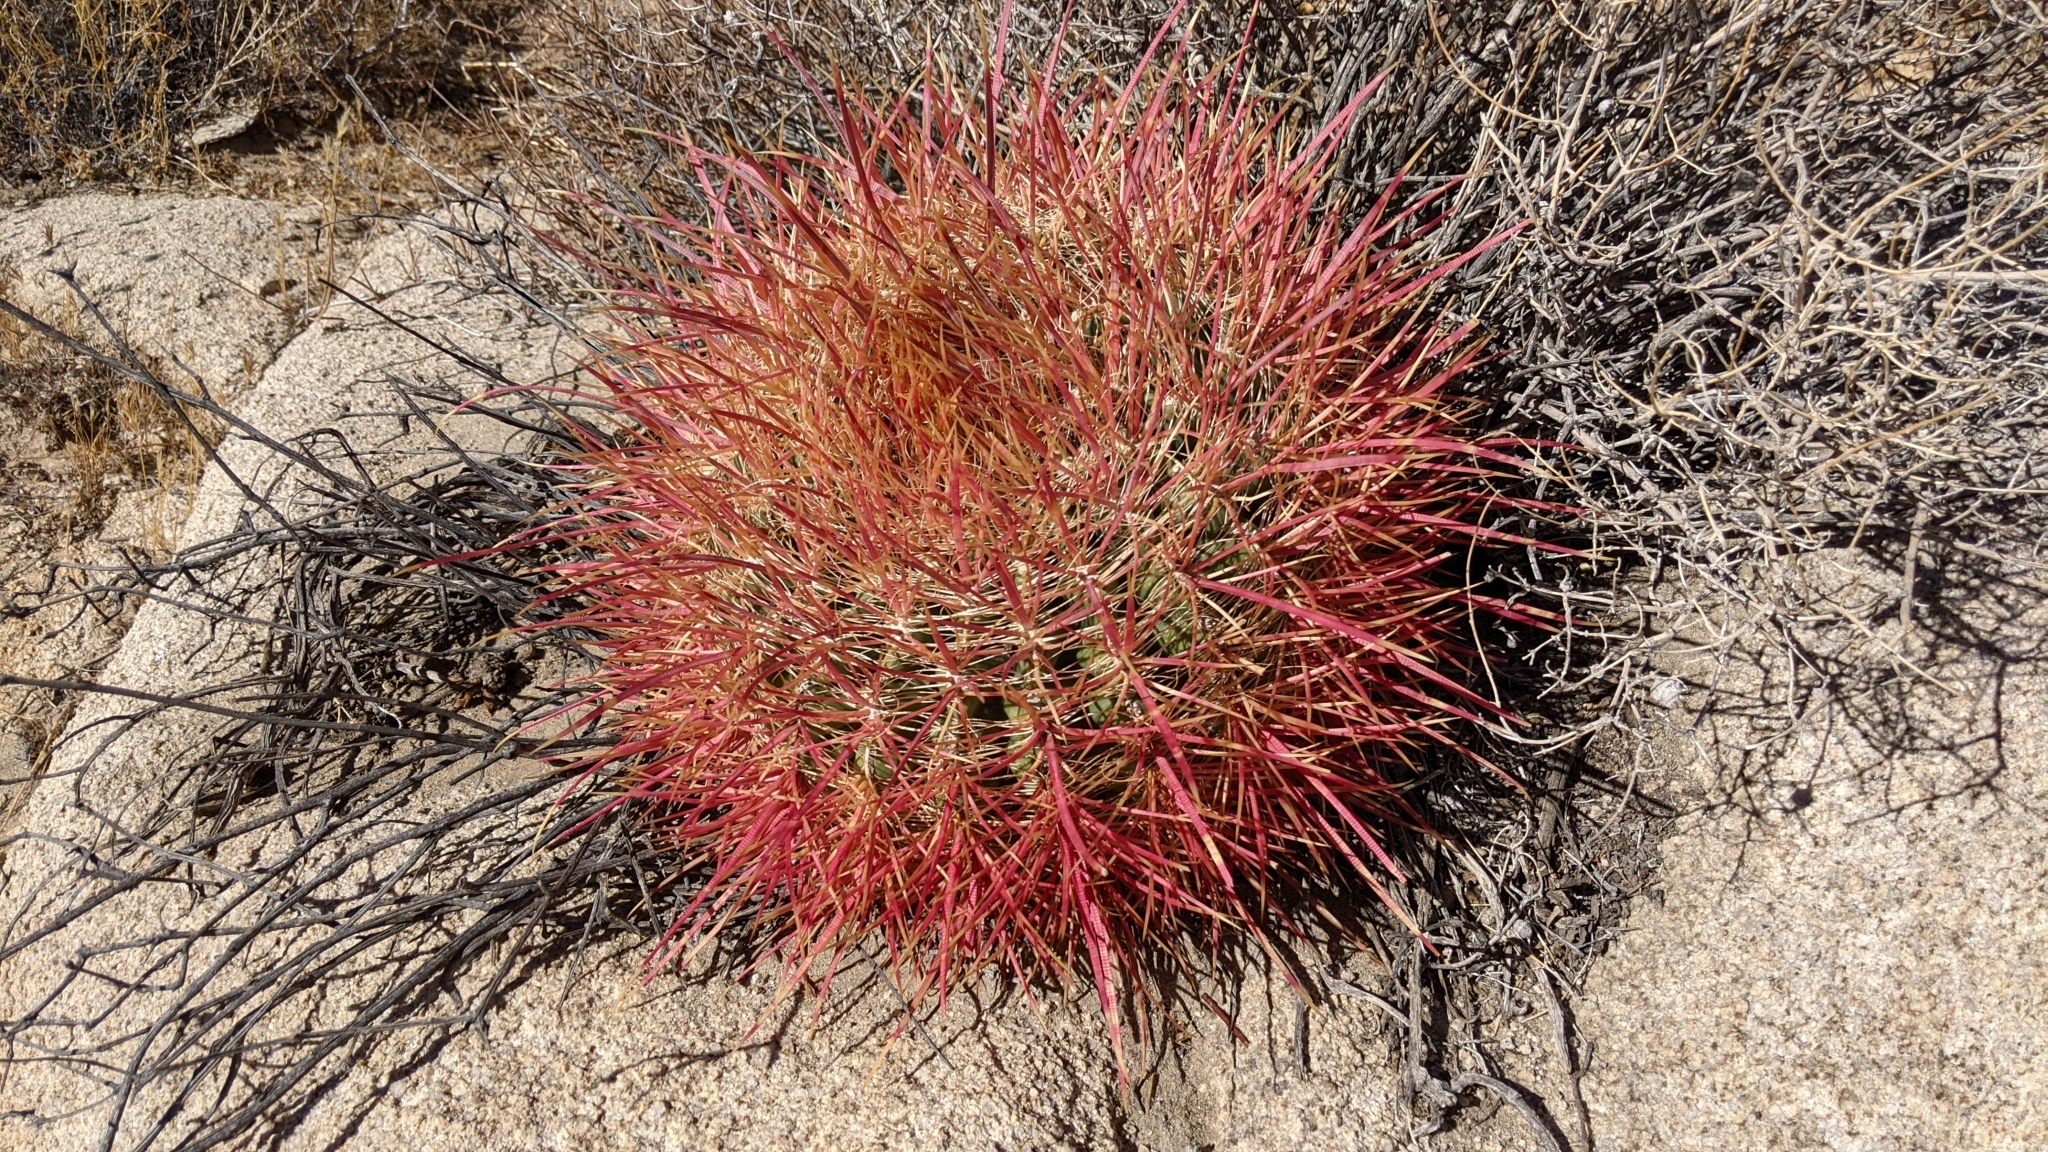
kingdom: Plantae
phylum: Tracheophyta
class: Magnoliopsida
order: Caryophyllales
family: Cactaceae
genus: Ferocactus
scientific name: Ferocactus cylindraceus
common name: California barrel cactus
